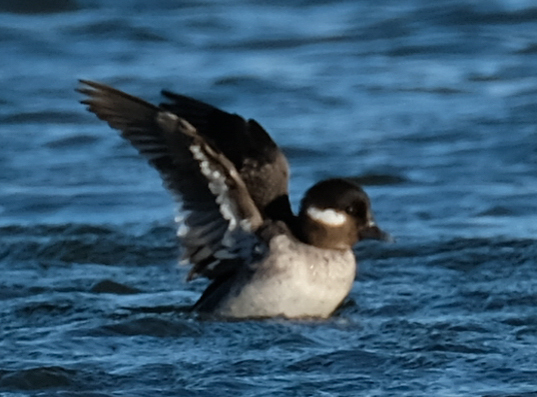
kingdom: Animalia
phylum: Chordata
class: Aves
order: Anseriformes
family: Anatidae
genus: Bucephala
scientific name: Bucephala albeola
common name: Bufflehead
